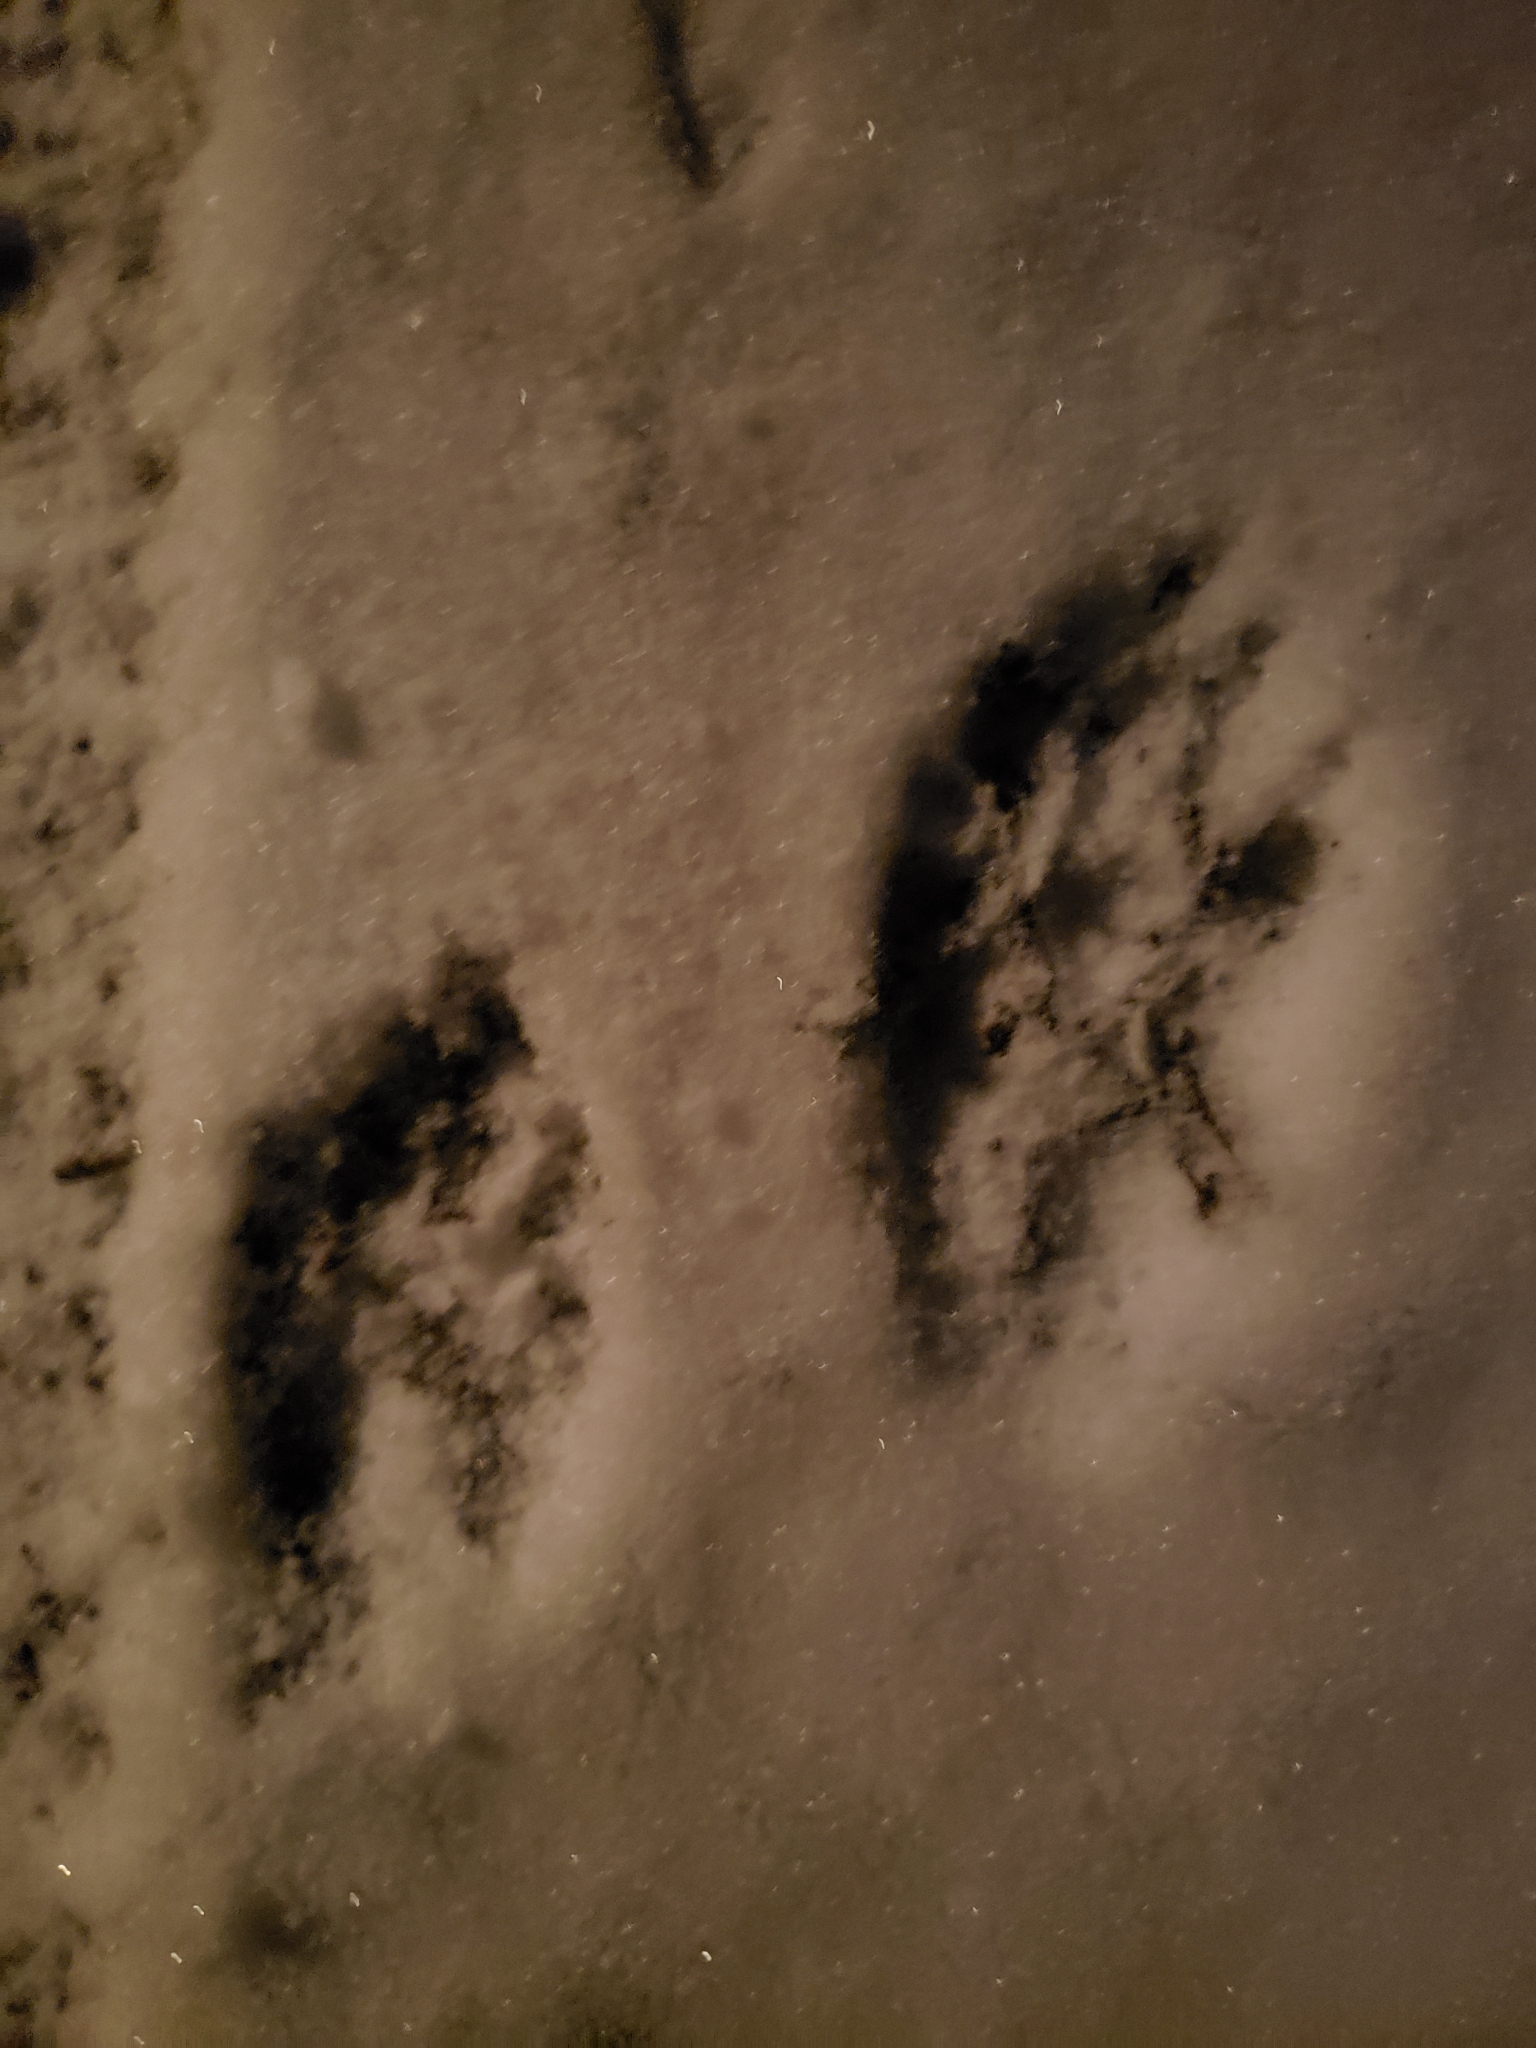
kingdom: Animalia
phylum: Chordata
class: Mammalia
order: Carnivora
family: Procyonidae
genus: Procyon
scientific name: Procyon lotor
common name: Raccoon
